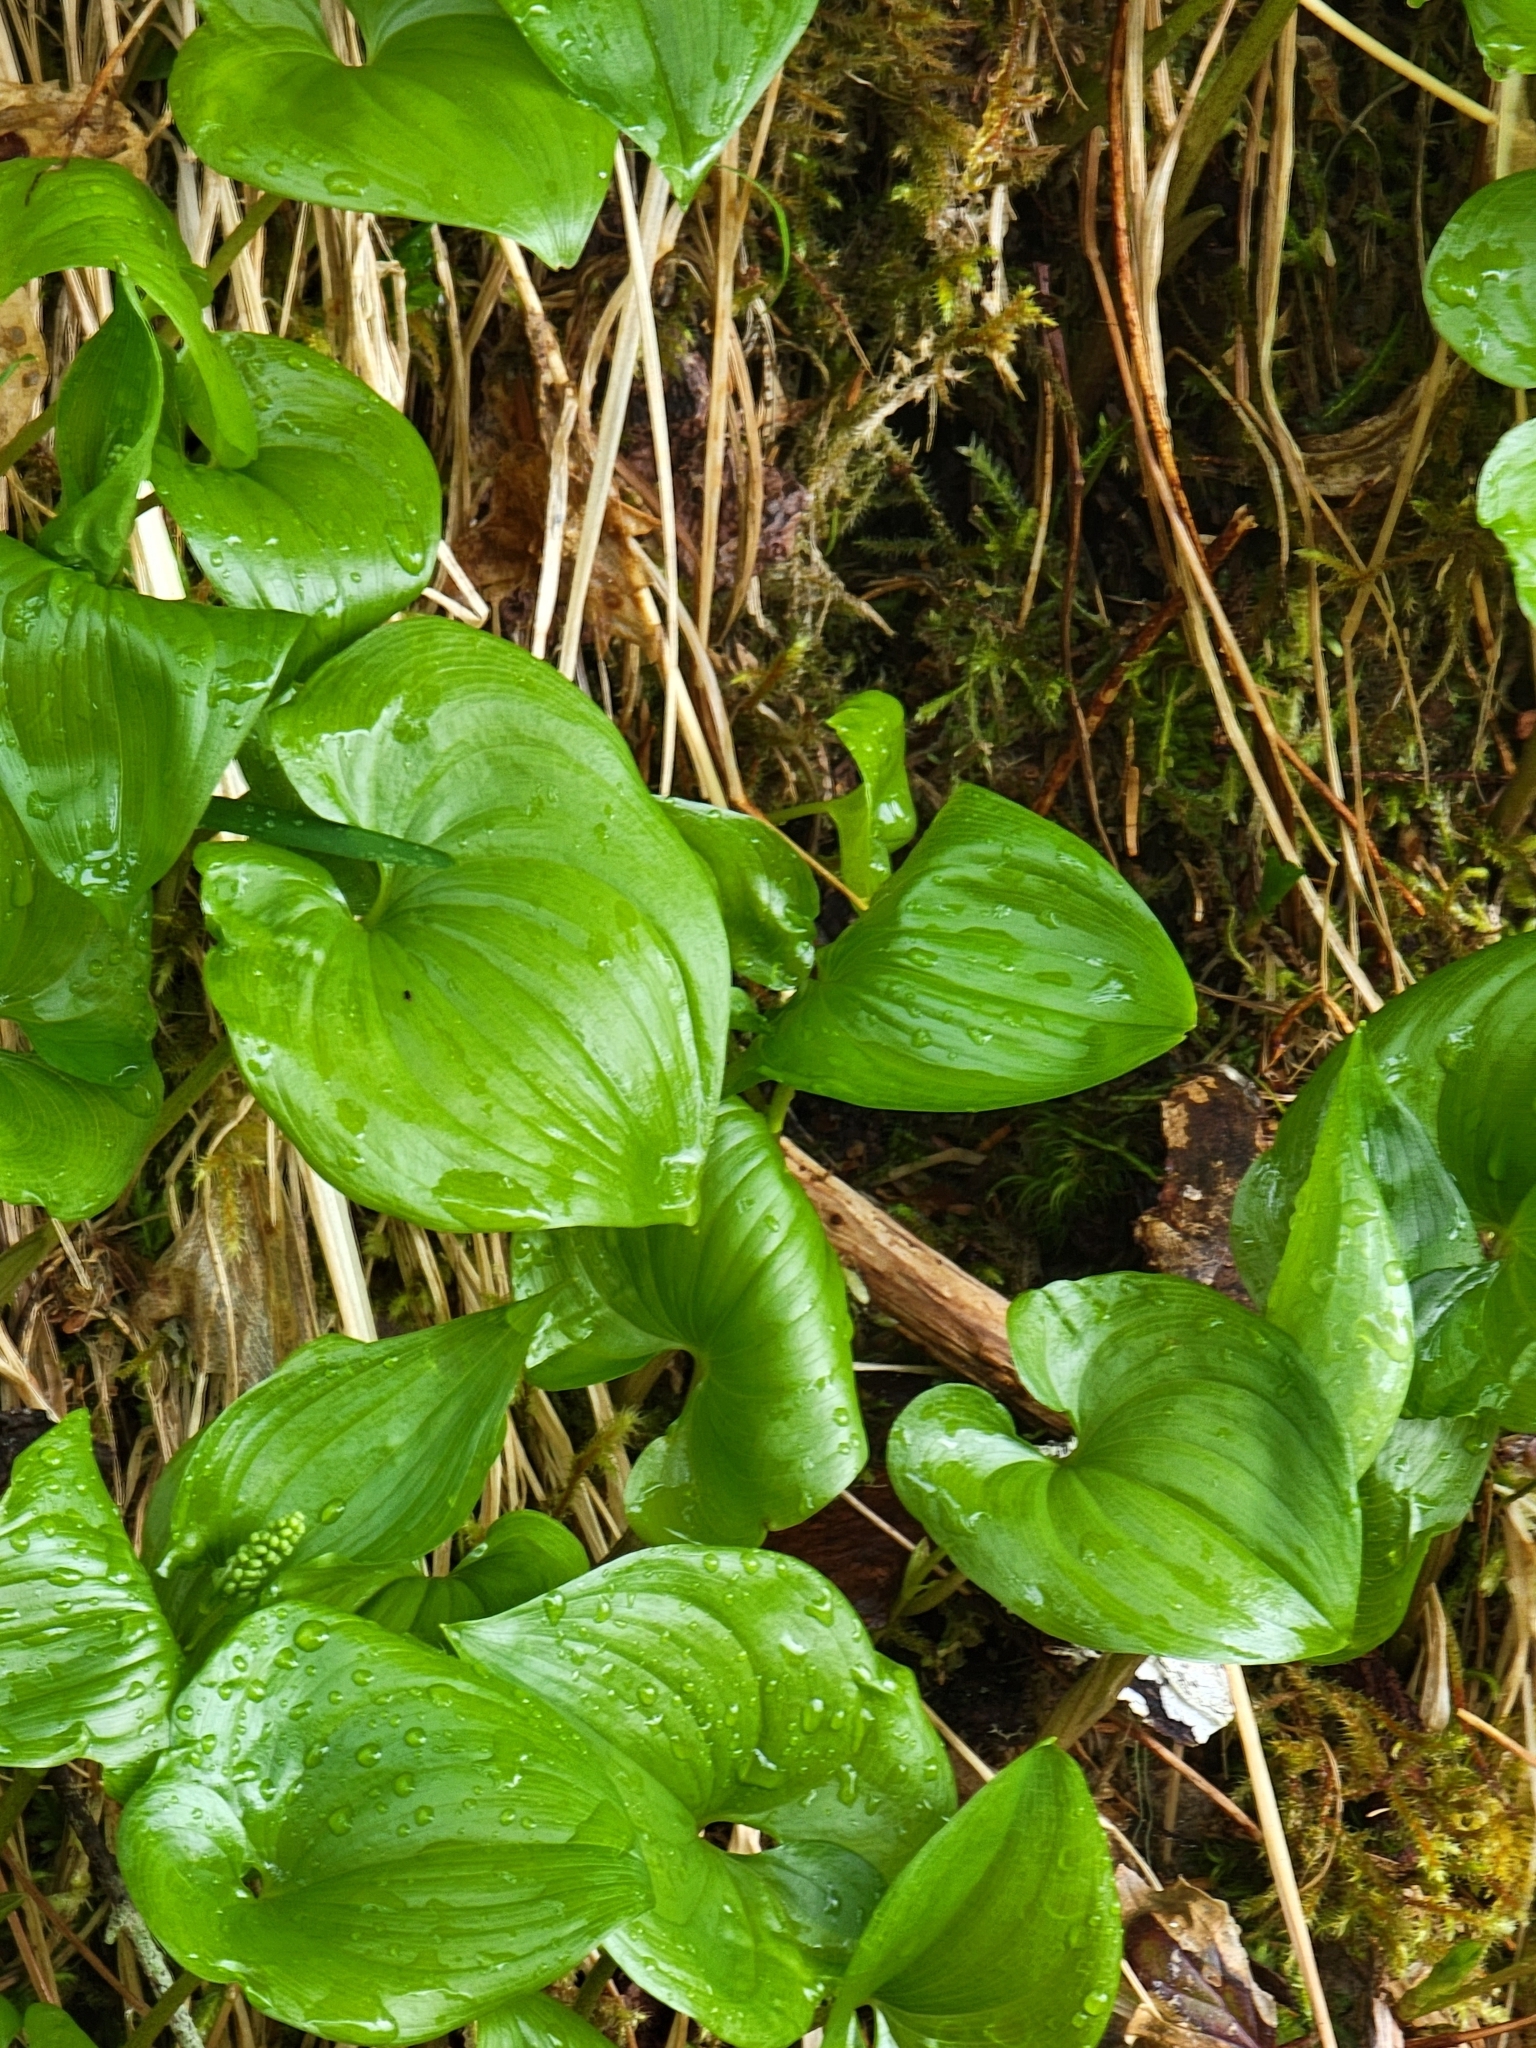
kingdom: Plantae
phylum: Tracheophyta
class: Liliopsida
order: Asparagales
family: Asparagaceae
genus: Maianthemum
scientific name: Maianthemum dilatatum
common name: False lily-of-the-valley
